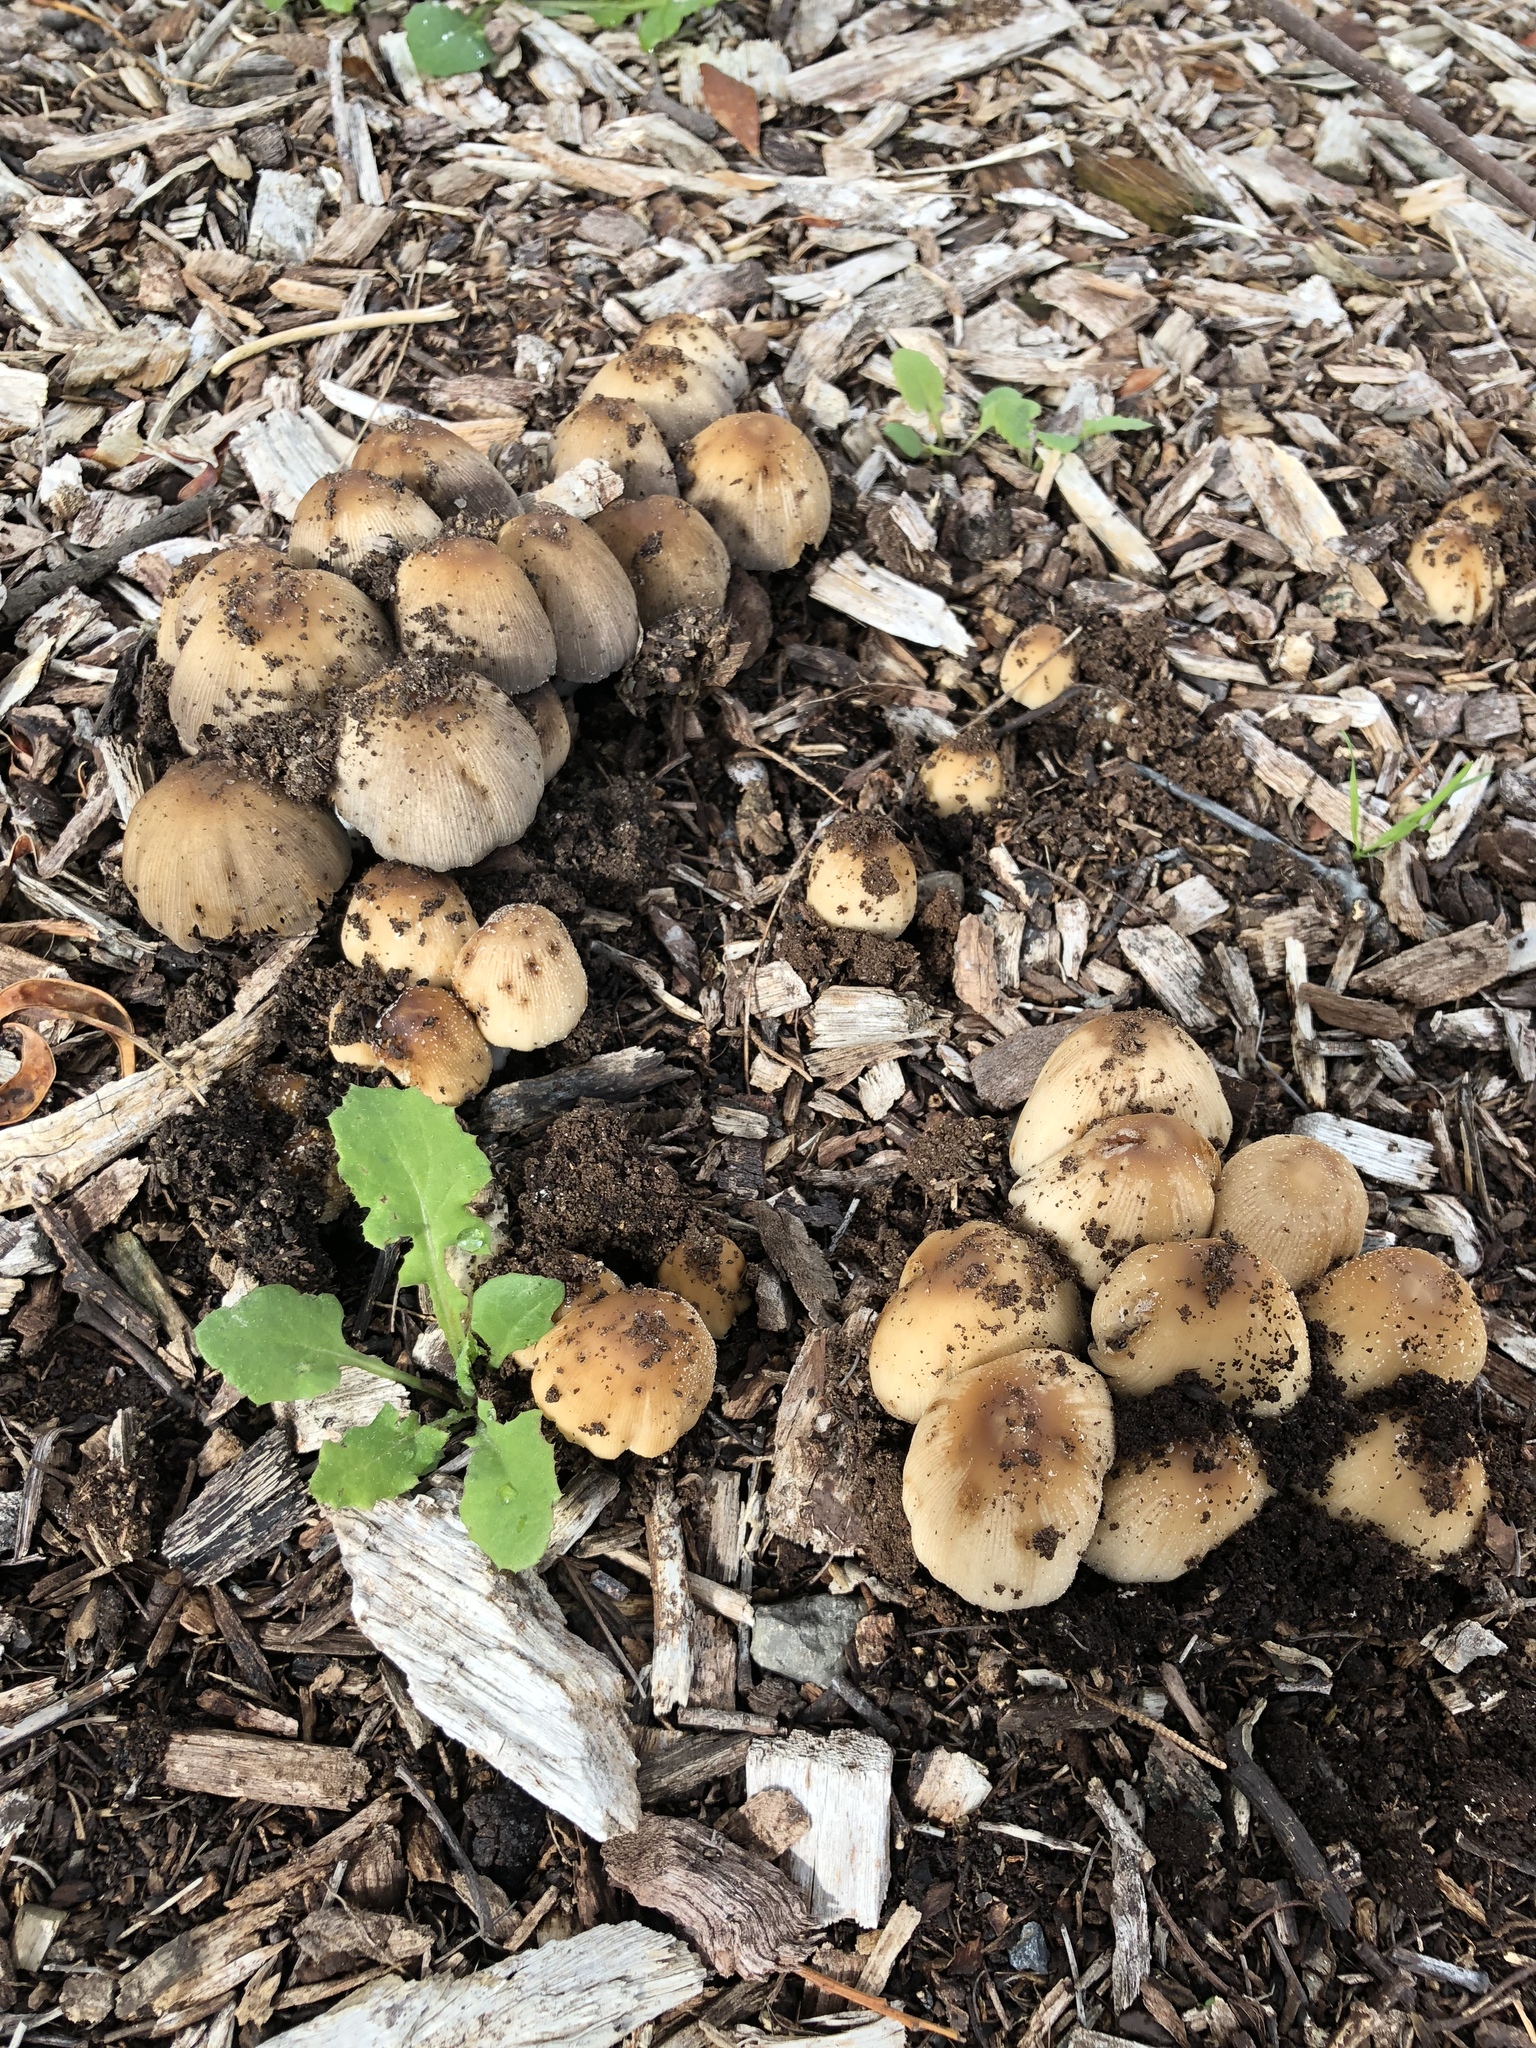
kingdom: Fungi
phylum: Basidiomycota
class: Agaricomycetes
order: Agaricales
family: Psathyrellaceae
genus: Coprinellus
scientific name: Coprinellus micaceus
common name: Glistening ink-cap
